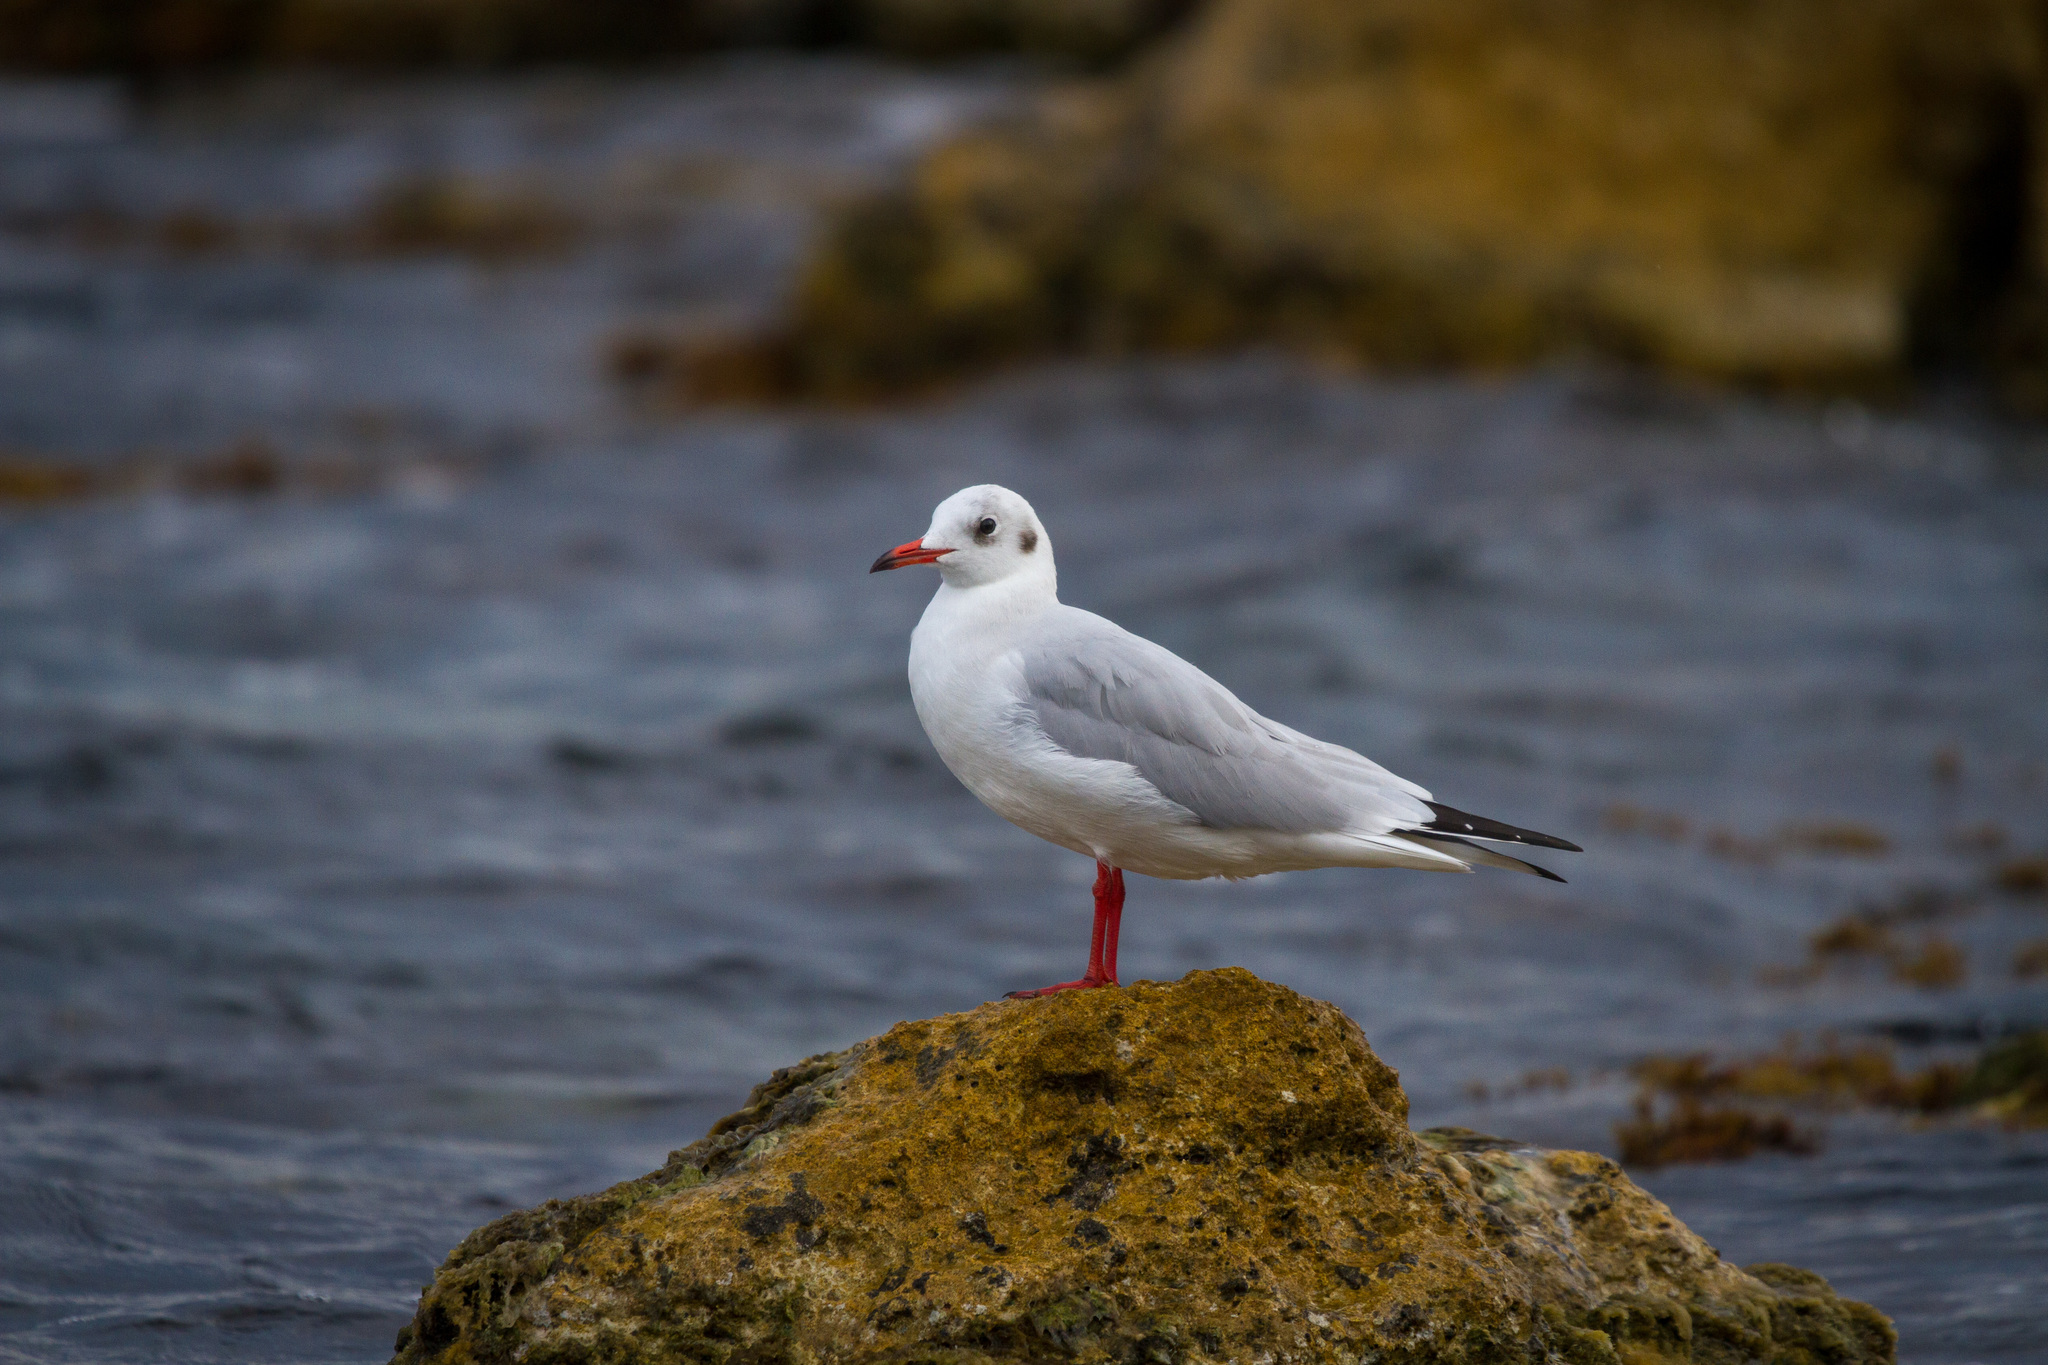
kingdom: Animalia
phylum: Chordata
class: Aves
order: Charadriiformes
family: Laridae
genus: Chroicocephalus
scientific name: Chroicocephalus ridibundus
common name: Black-headed gull
